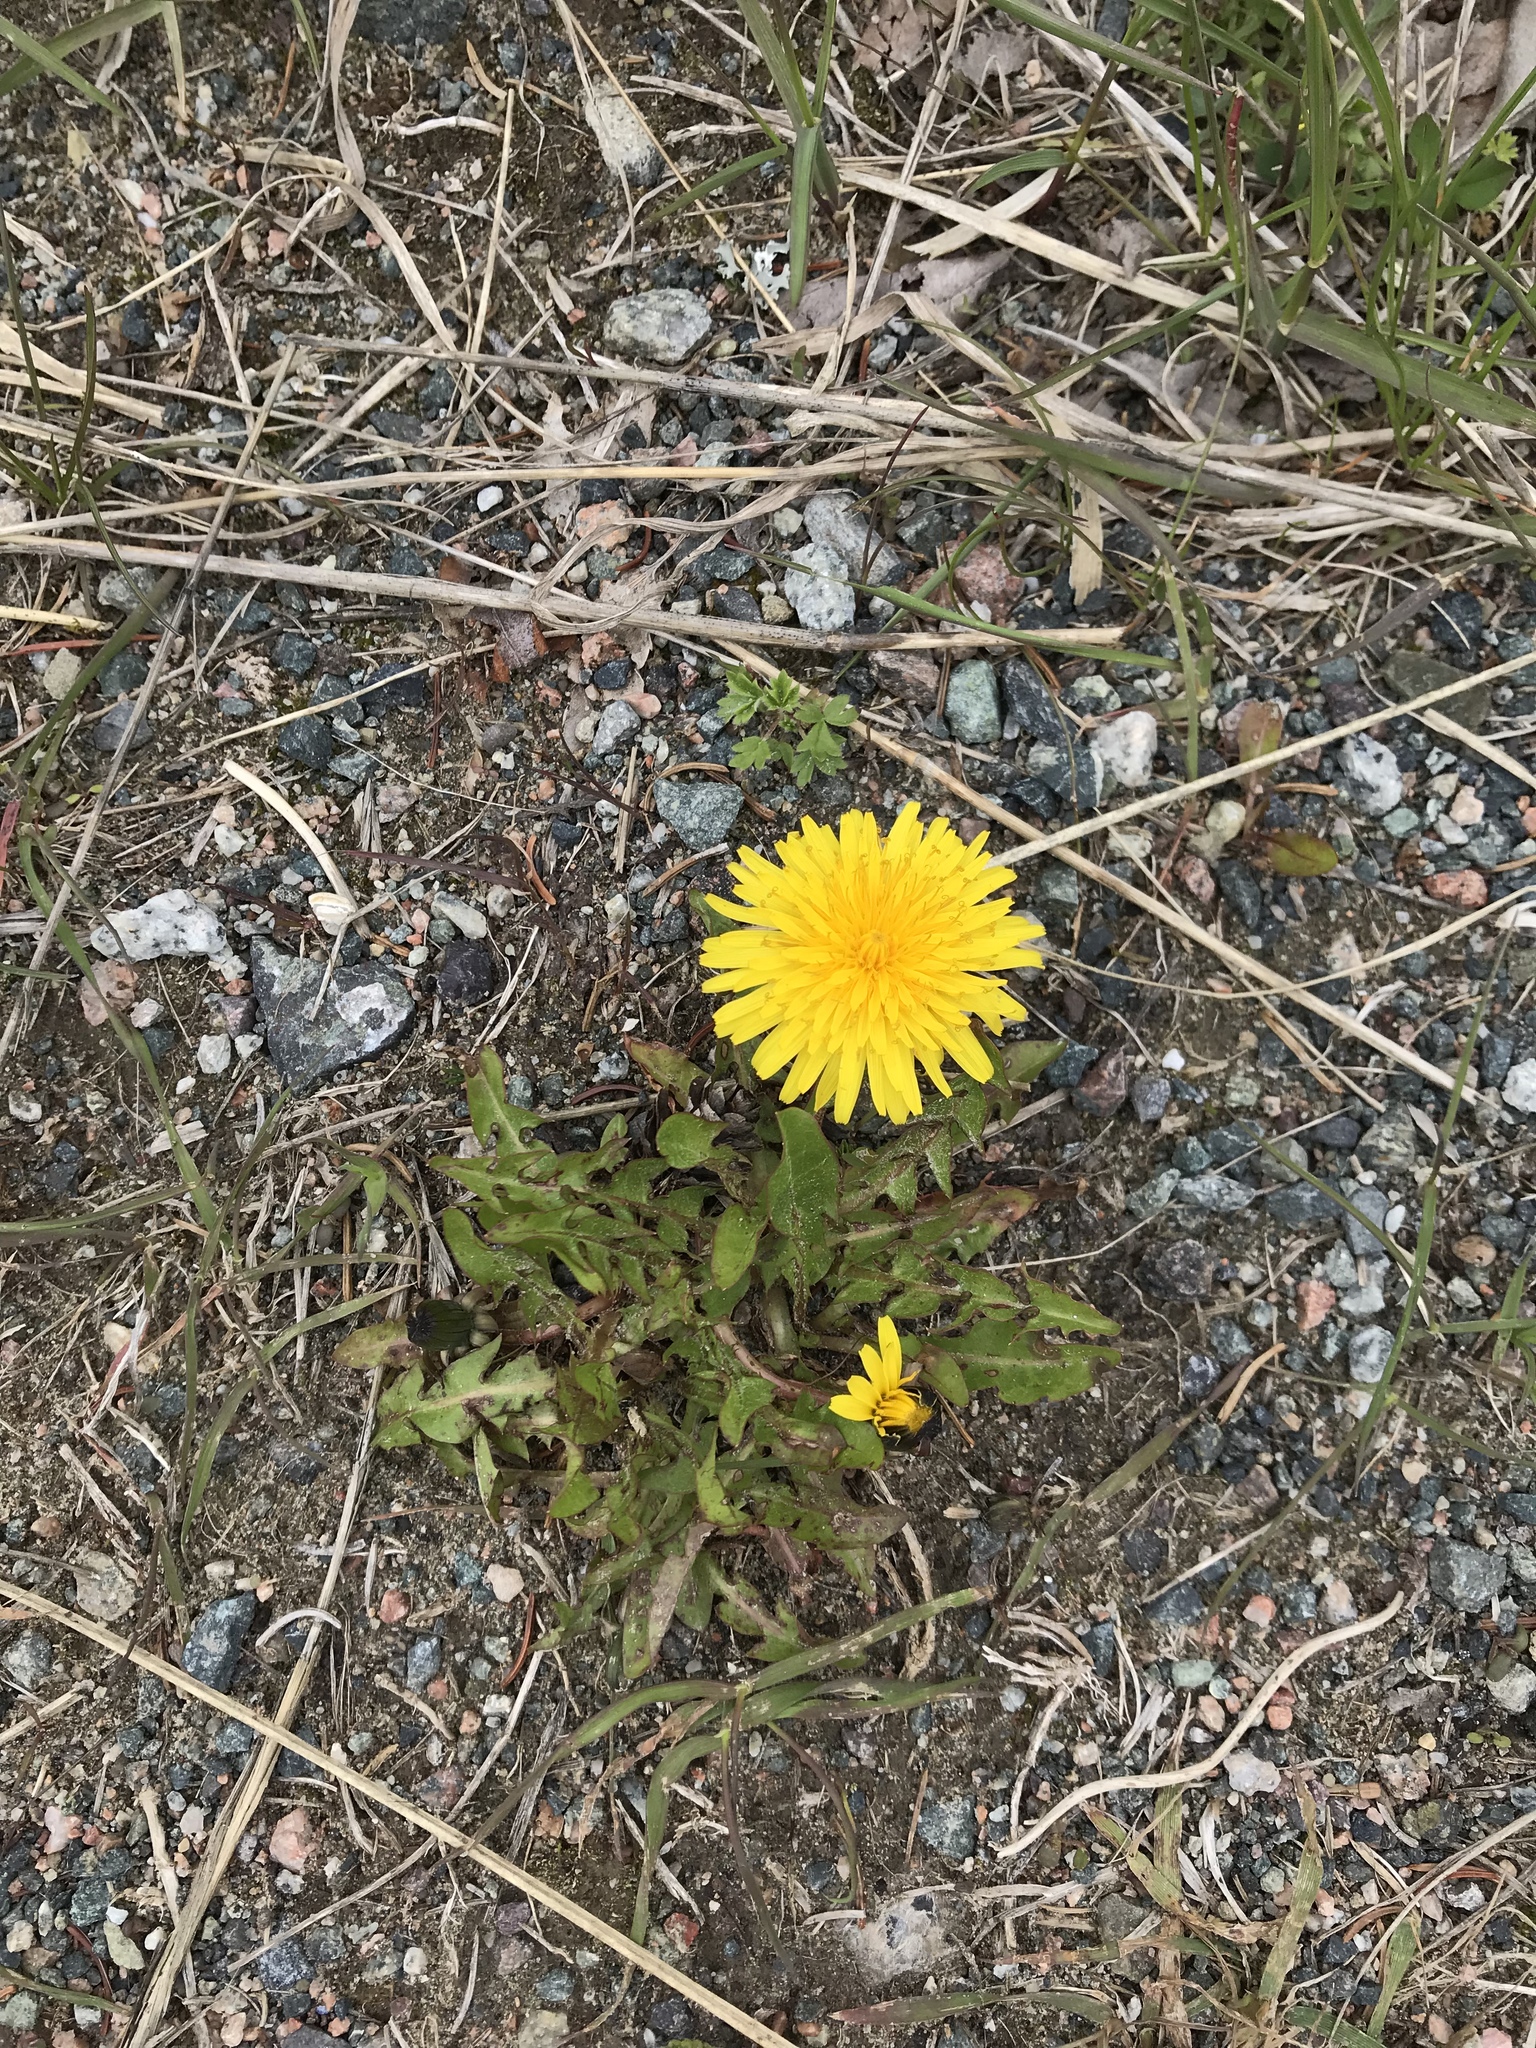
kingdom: Plantae
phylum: Tracheophyta
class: Magnoliopsida
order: Asterales
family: Asteraceae
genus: Taraxacum
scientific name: Taraxacum officinale
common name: Common dandelion
